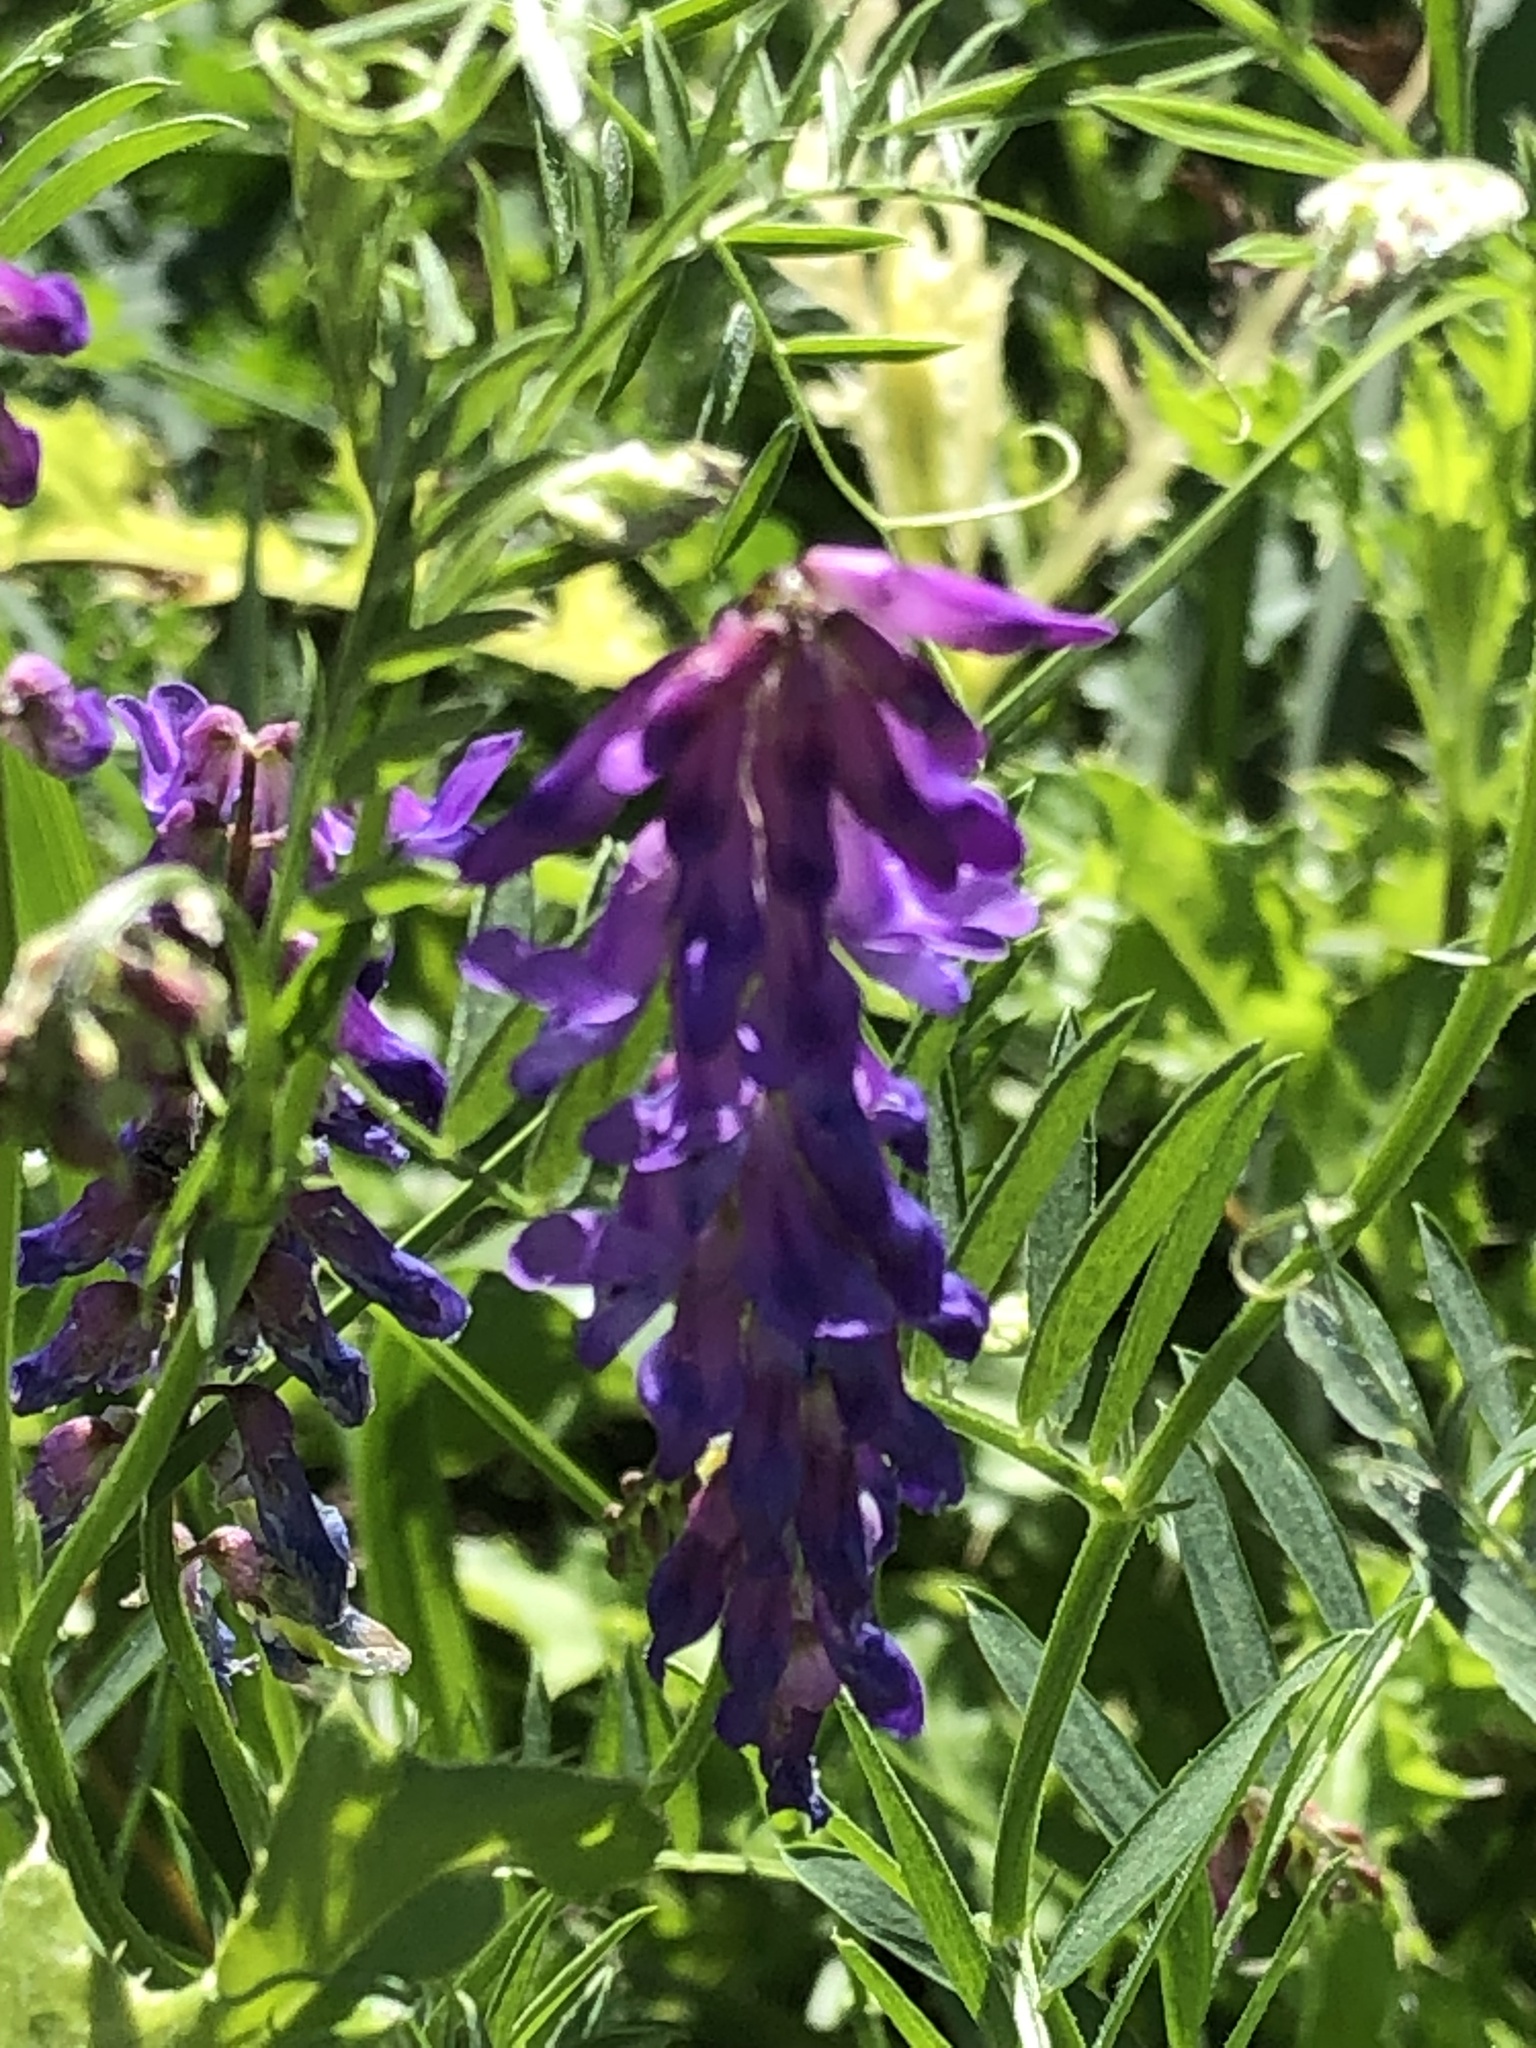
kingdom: Plantae
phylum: Tracheophyta
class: Magnoliopsida
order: Fabales
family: Fabaceae
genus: Vicia
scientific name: Vicia cracca
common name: Bird vetch
